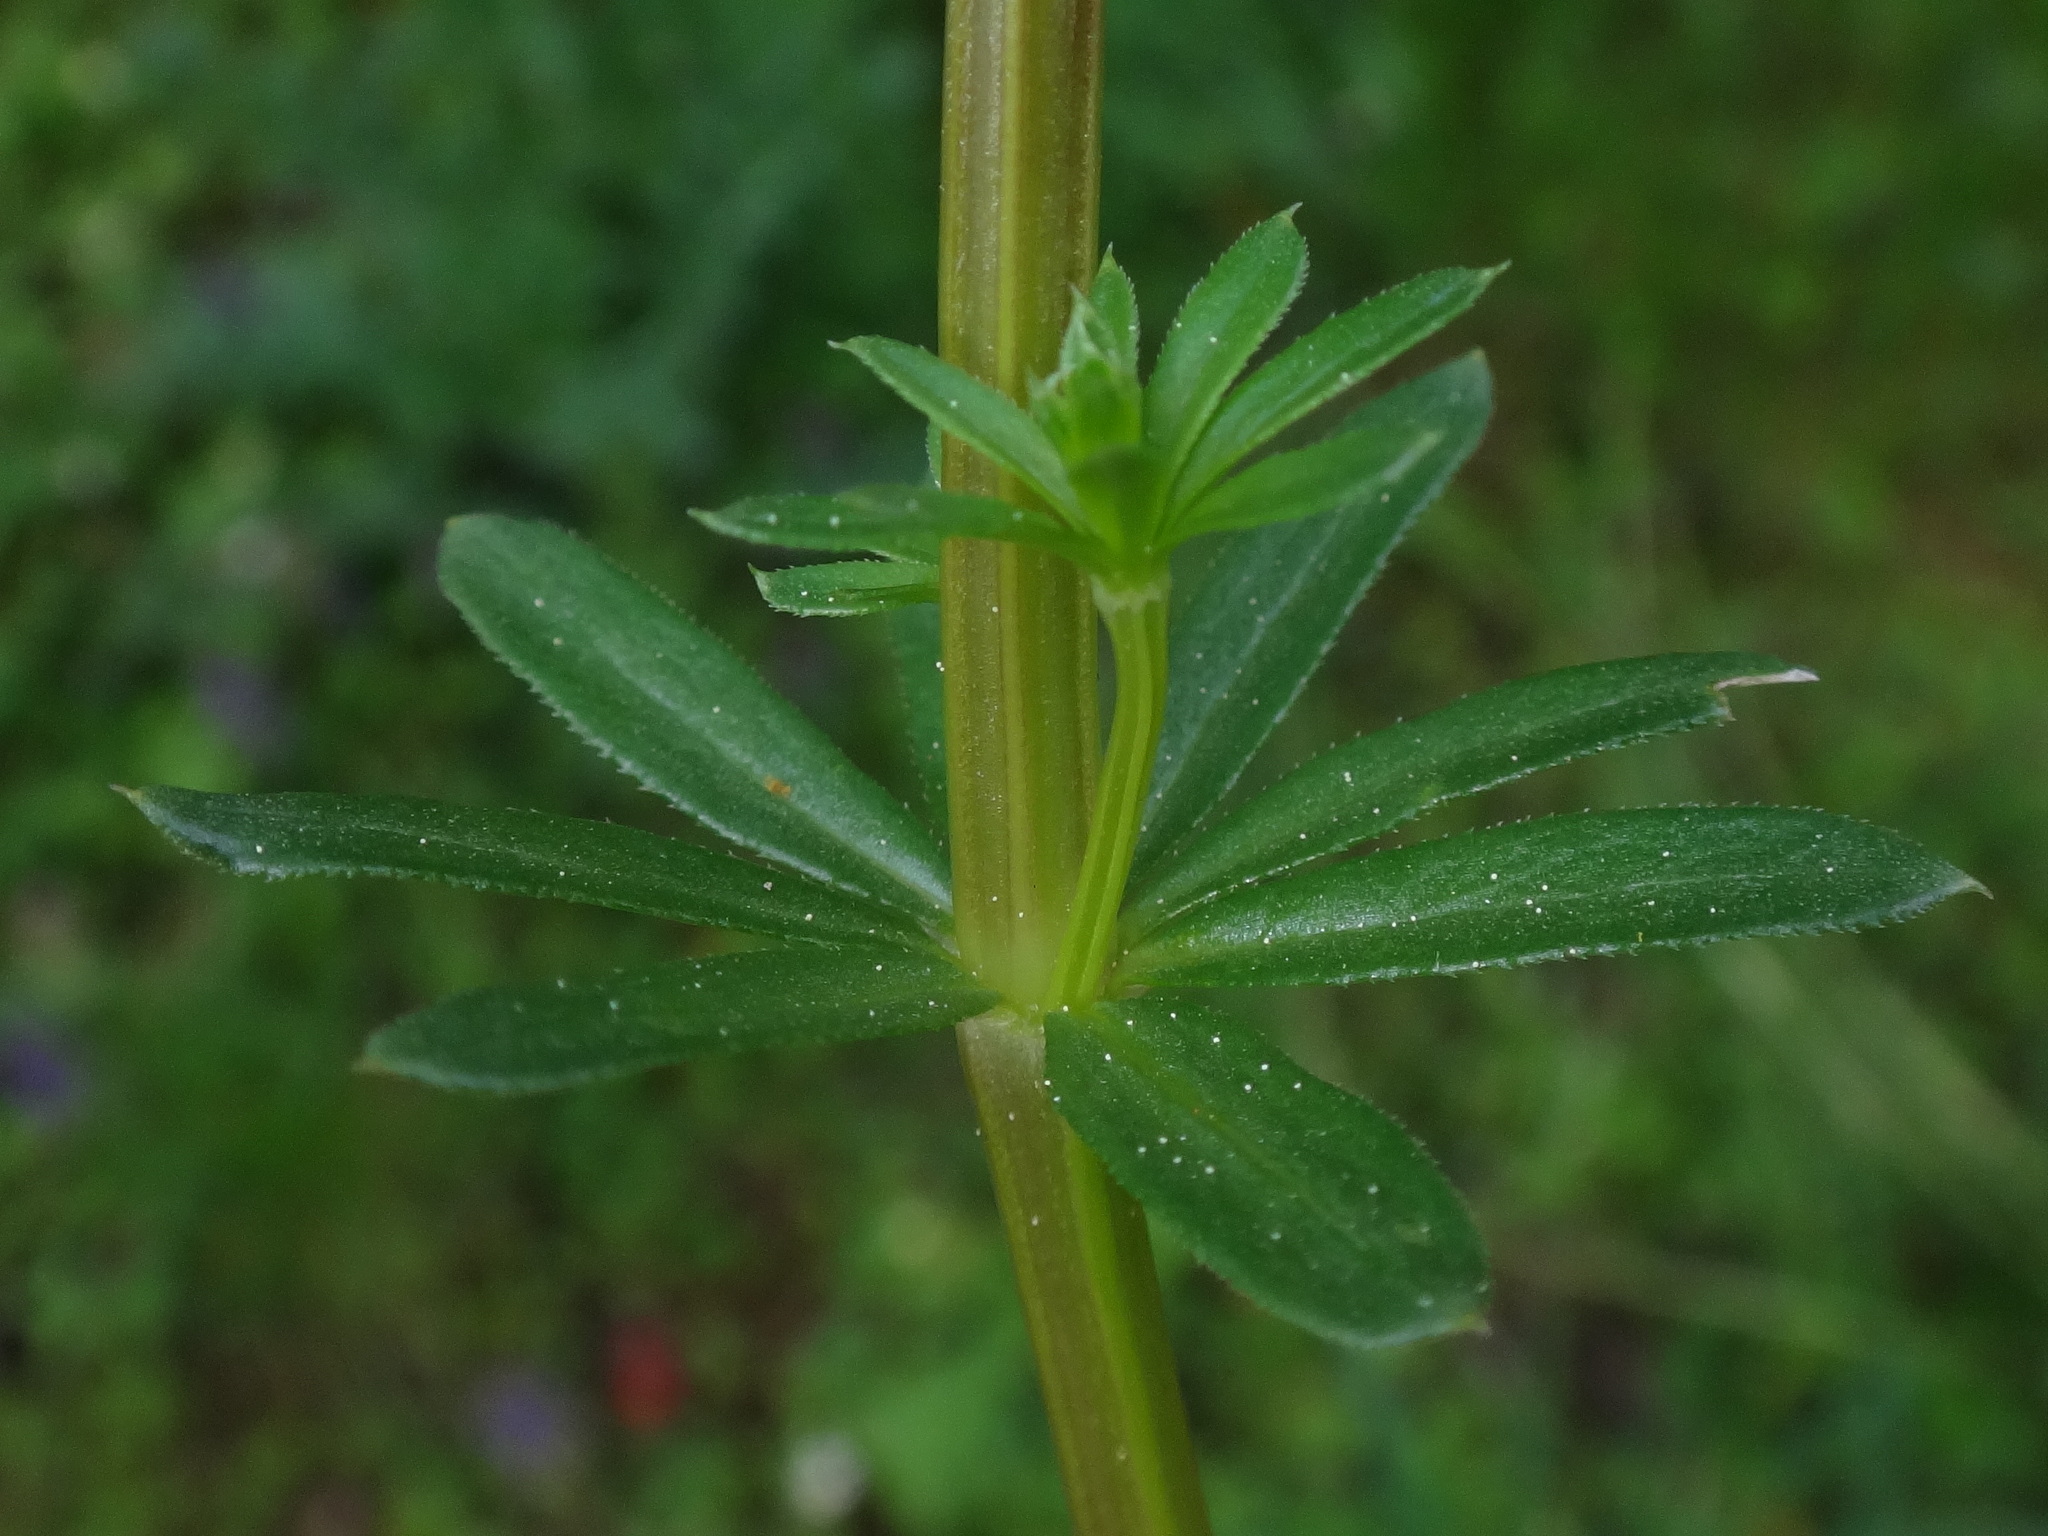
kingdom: Plantae
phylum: Tracheophyta
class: Magnoliopsida
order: Gentianales
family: Rubiaceae
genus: Galium
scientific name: Galium album
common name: White bedstraw
